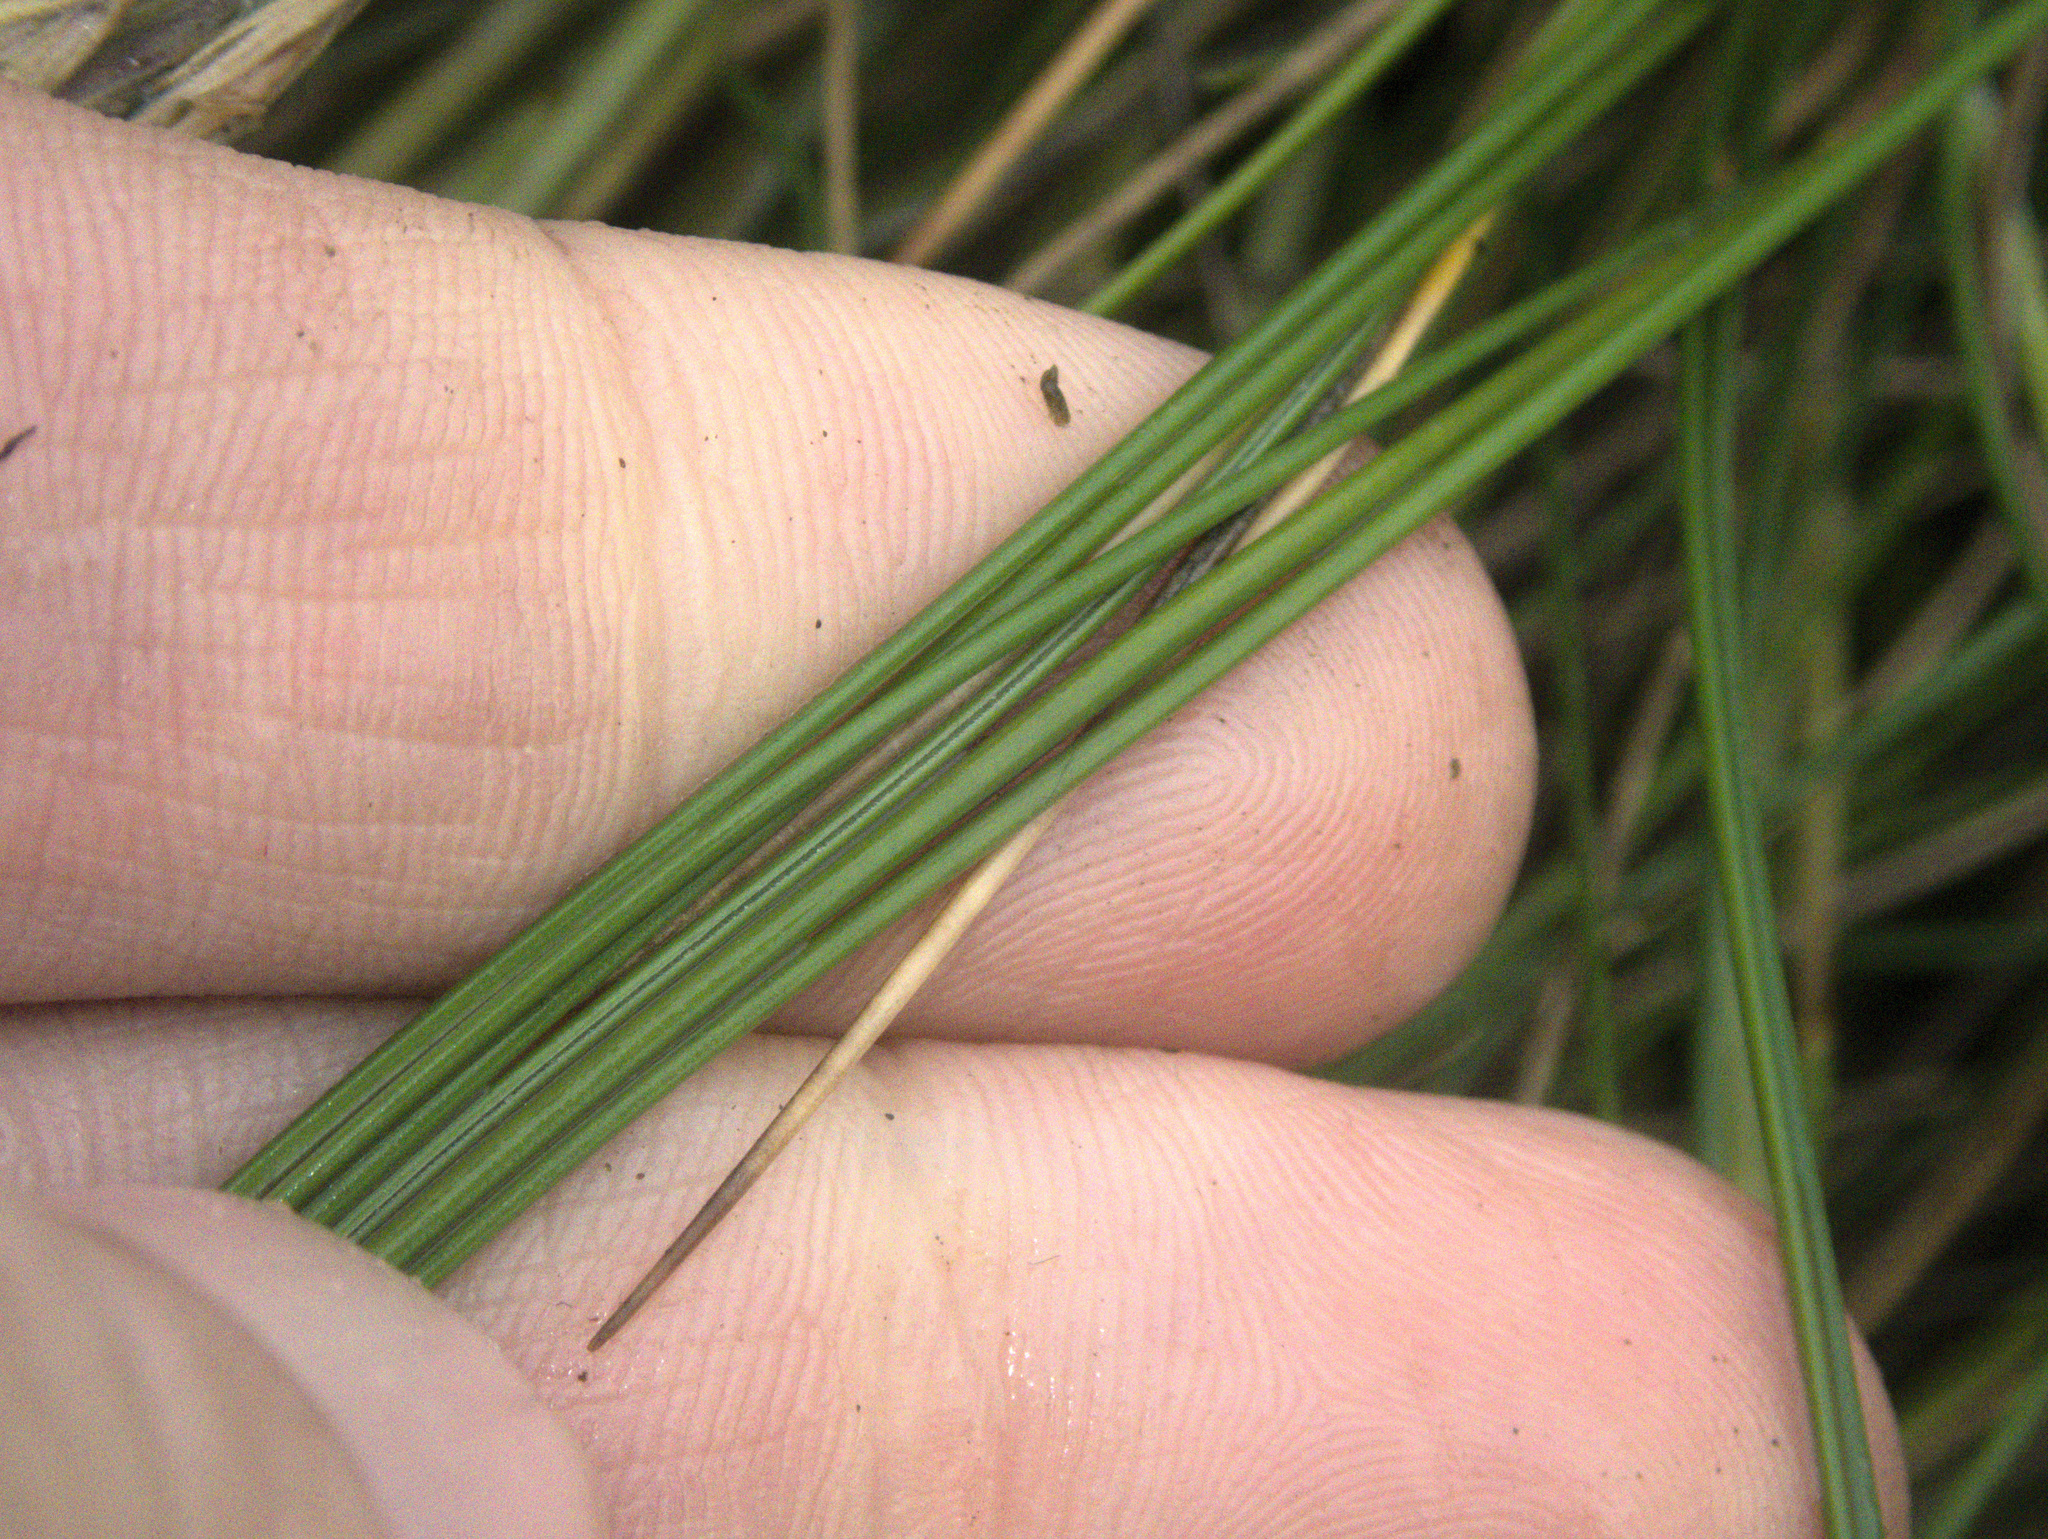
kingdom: Plantae
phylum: Tracheophyta
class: Liliopsida
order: Poales
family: Poaceae
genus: Festuca
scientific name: Festuca coxii
